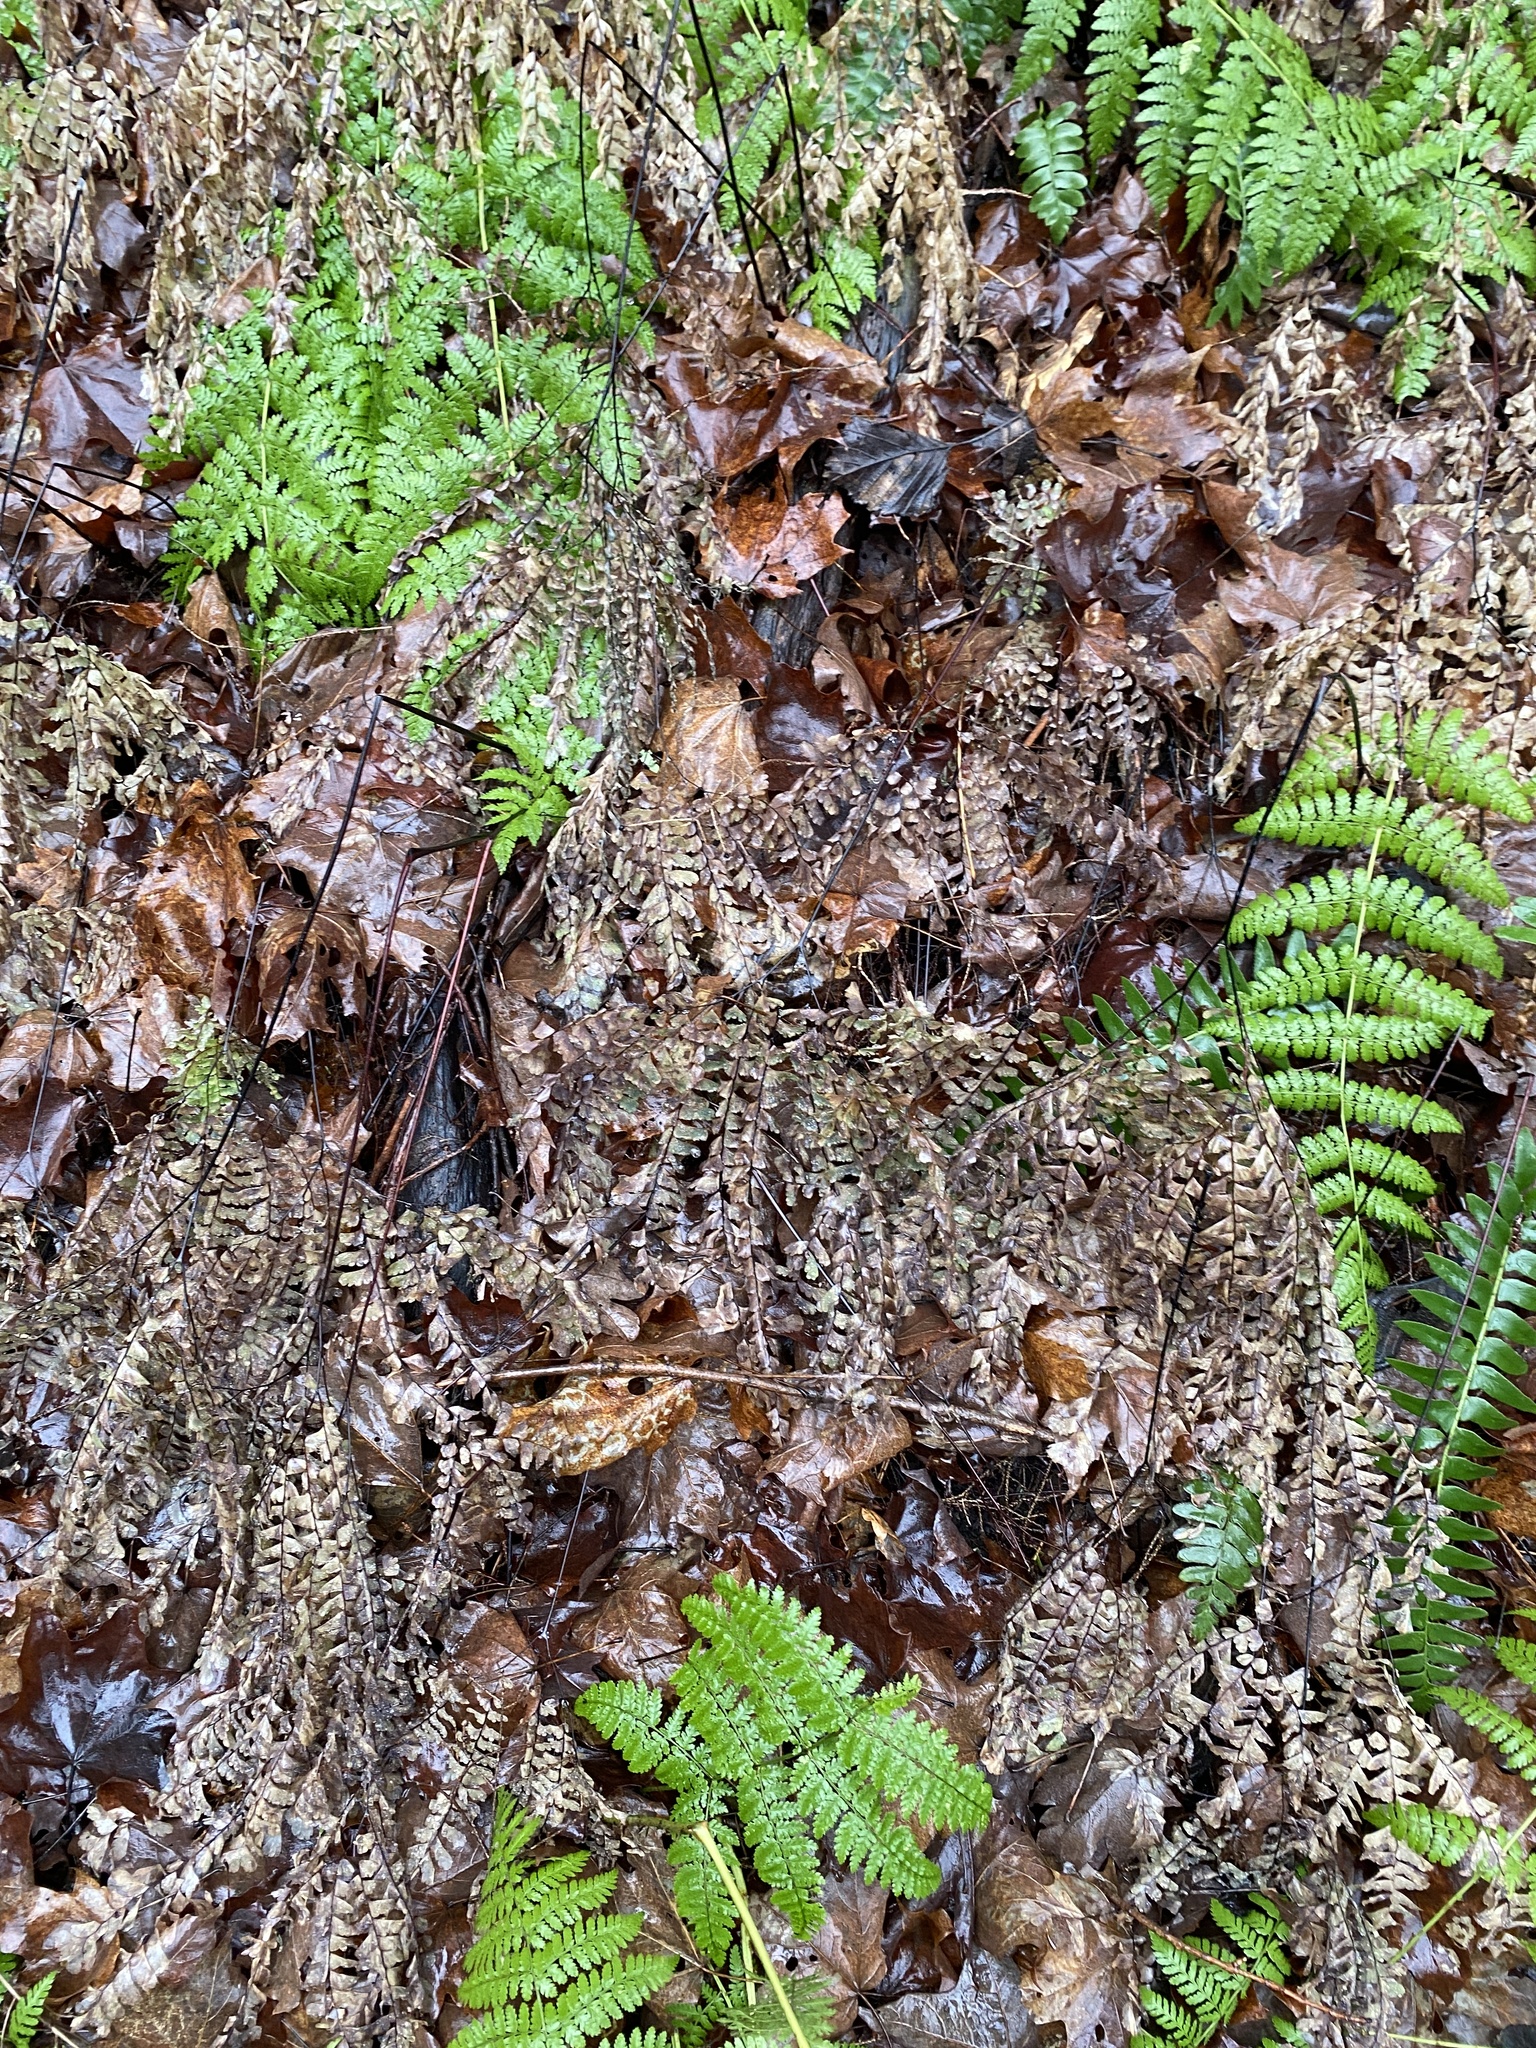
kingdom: Plantae
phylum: Tracheophyta
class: Polypodiopsida
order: Polypodiales
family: Pteridaceae
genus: Adiantum
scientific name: Adiantum pedatum
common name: Five-finger fern
